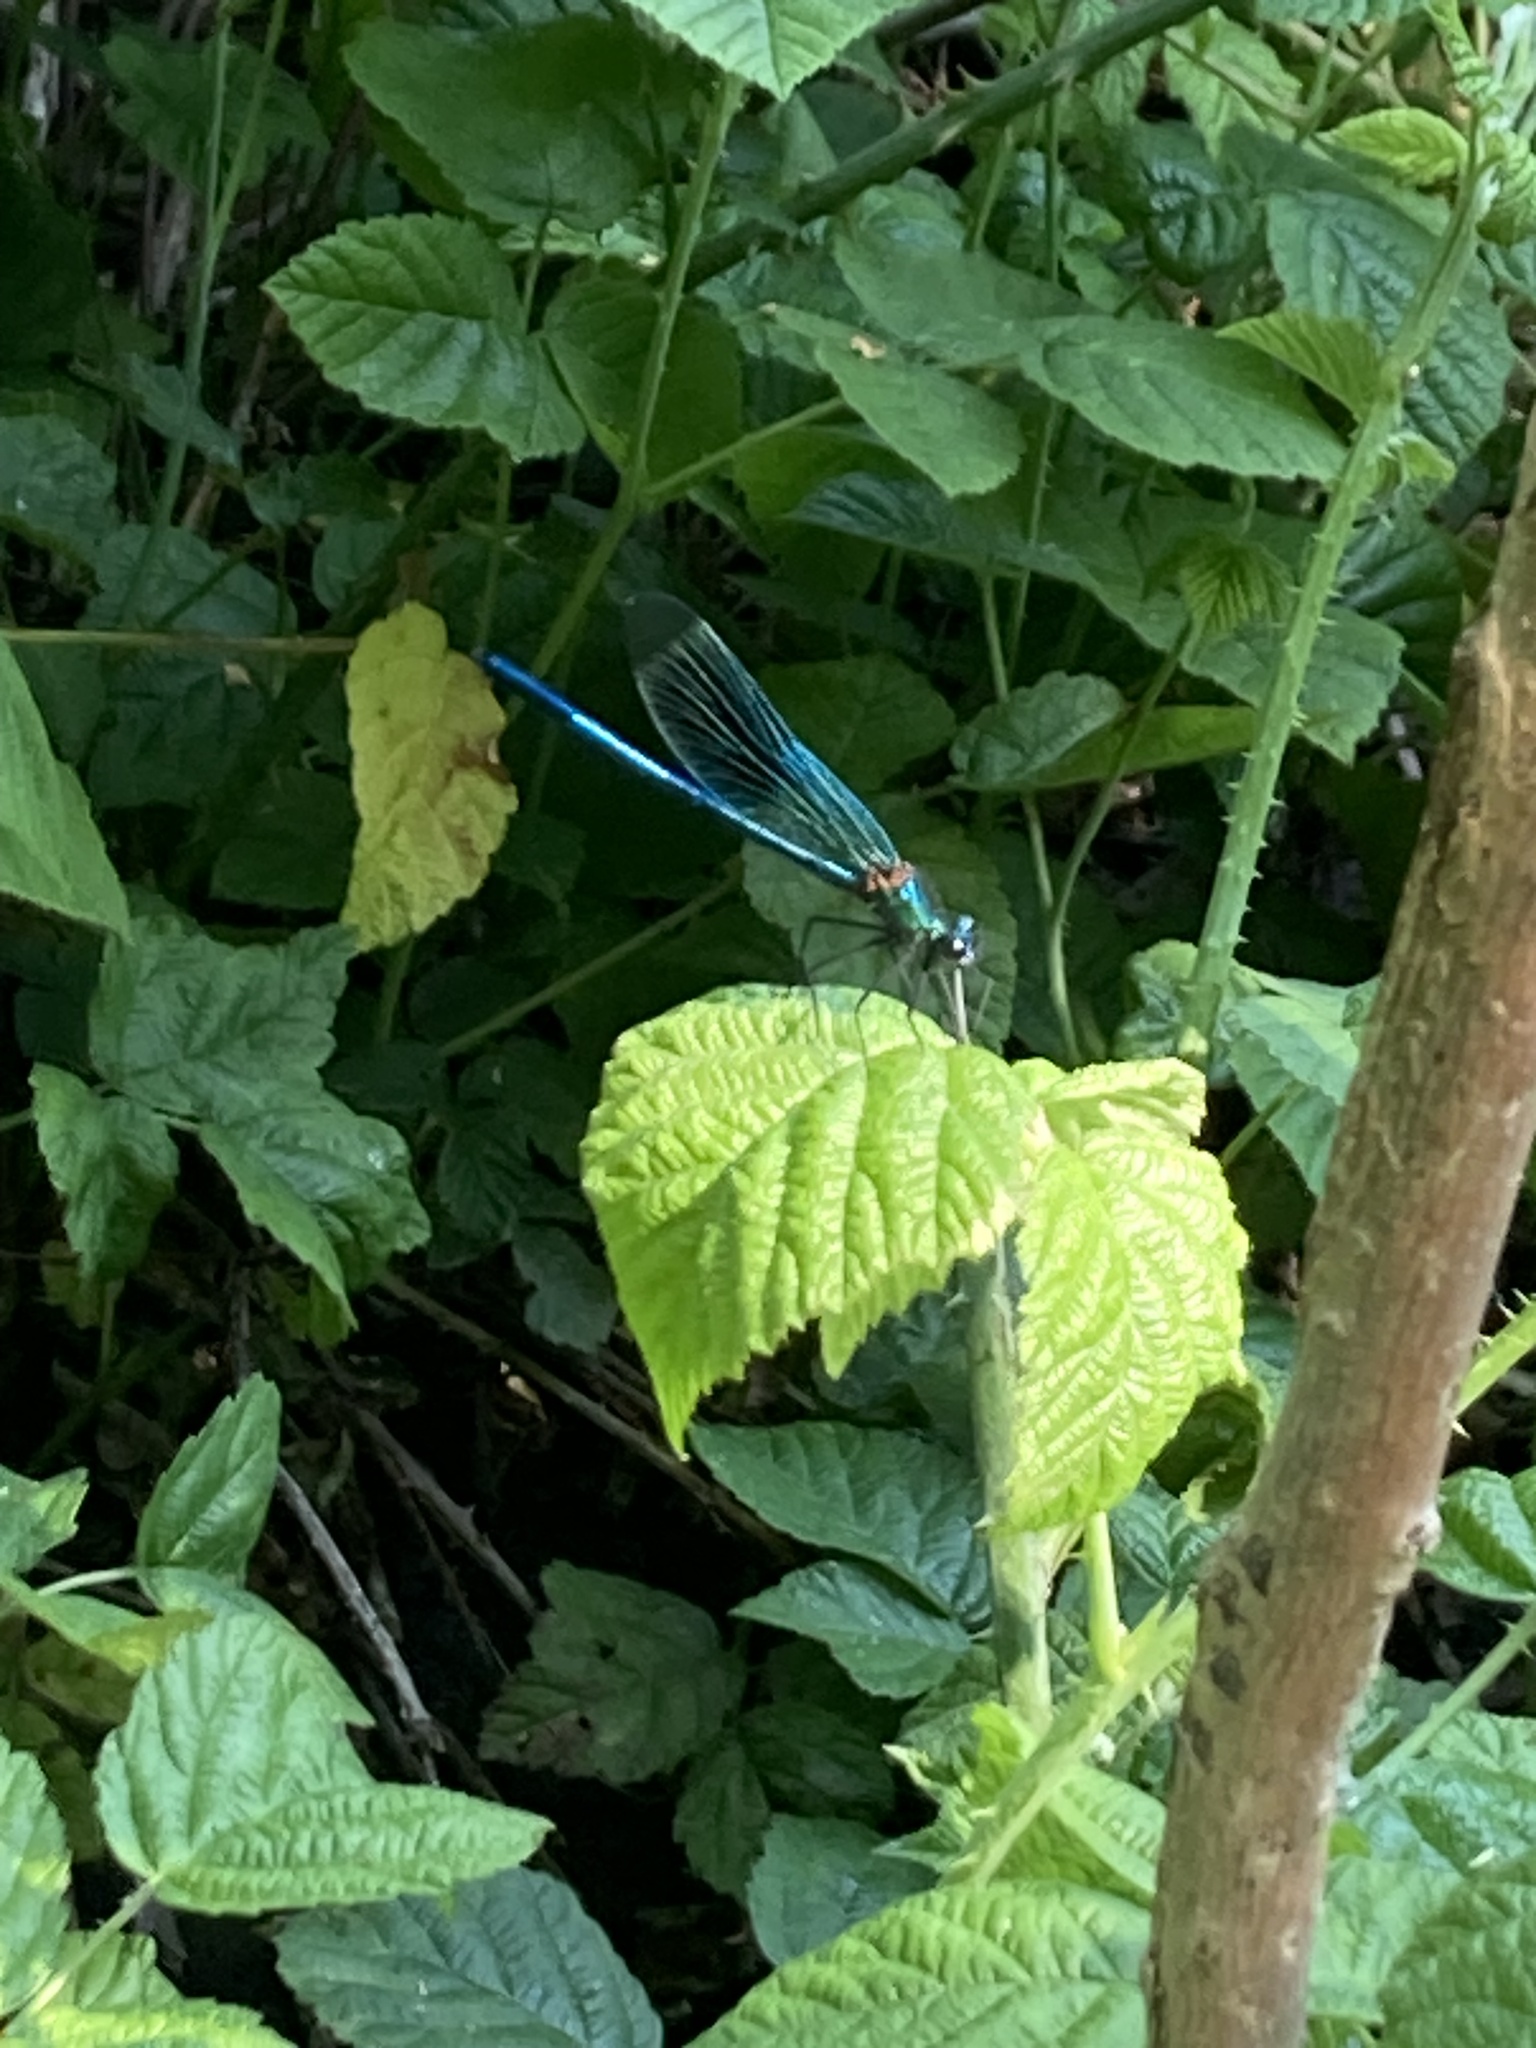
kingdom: Animalia
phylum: Arthropoda
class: Insecta
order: Odonata
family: Calopterygidae
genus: Calopteryx
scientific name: Calopteryx splendens
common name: Banded demoiselle
